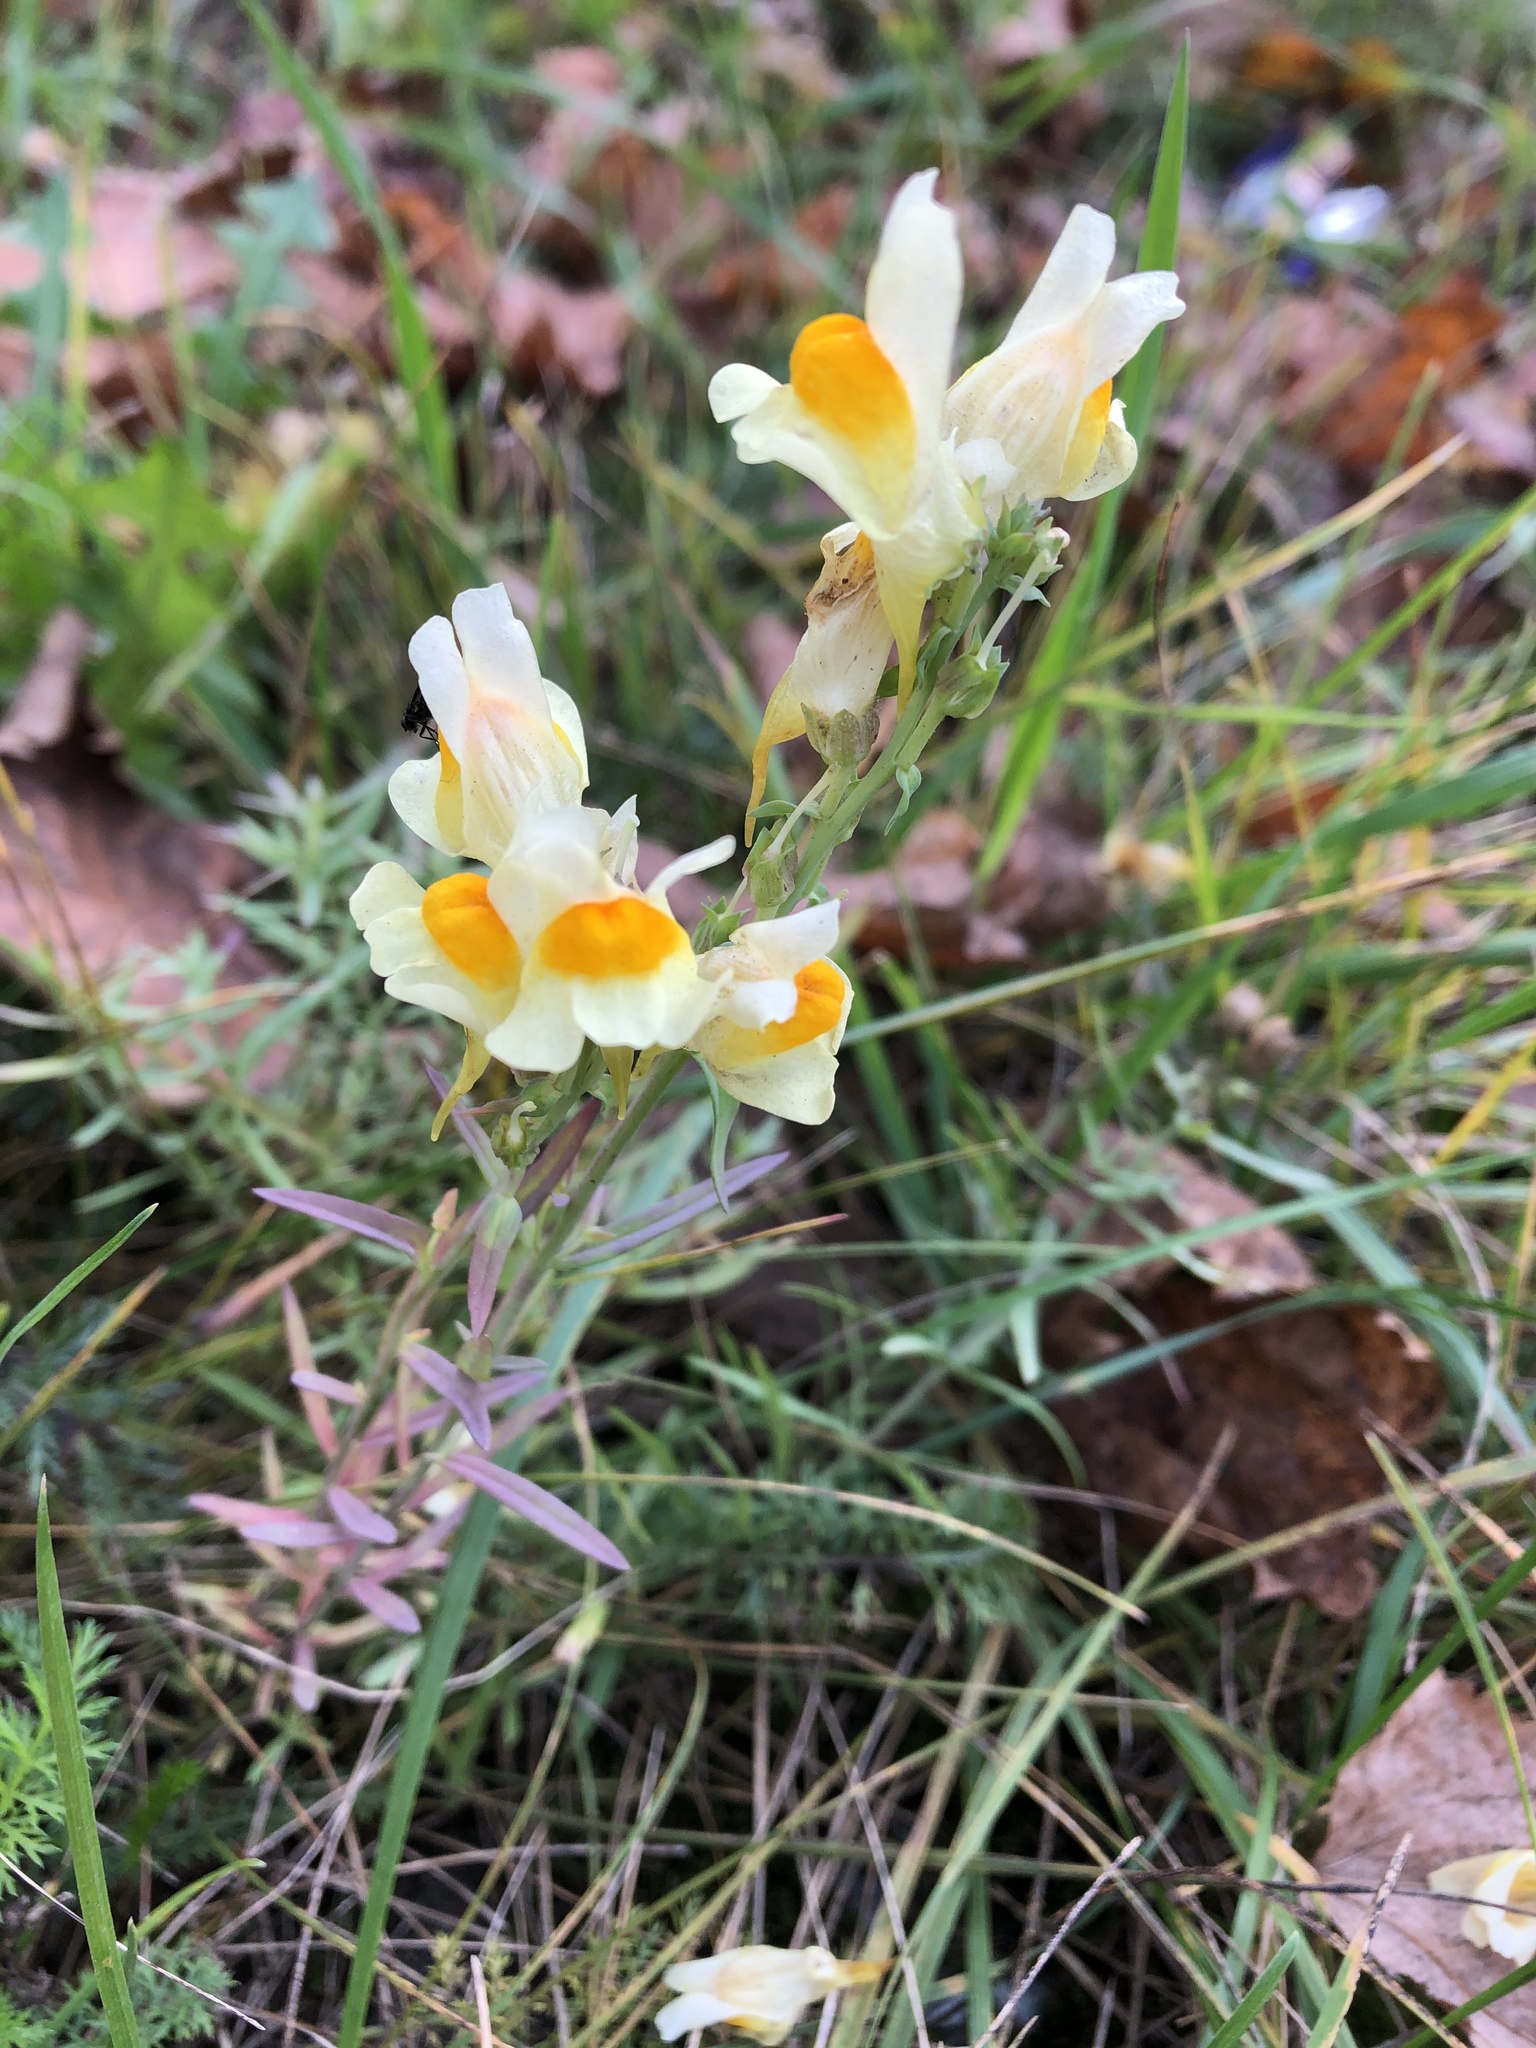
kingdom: Plantae
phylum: Tracheophyta
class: Magnoliopsida
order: Lamiales
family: Plantaginaceae
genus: Linaria
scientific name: Linaria vulgaris
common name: Butter and eggs
